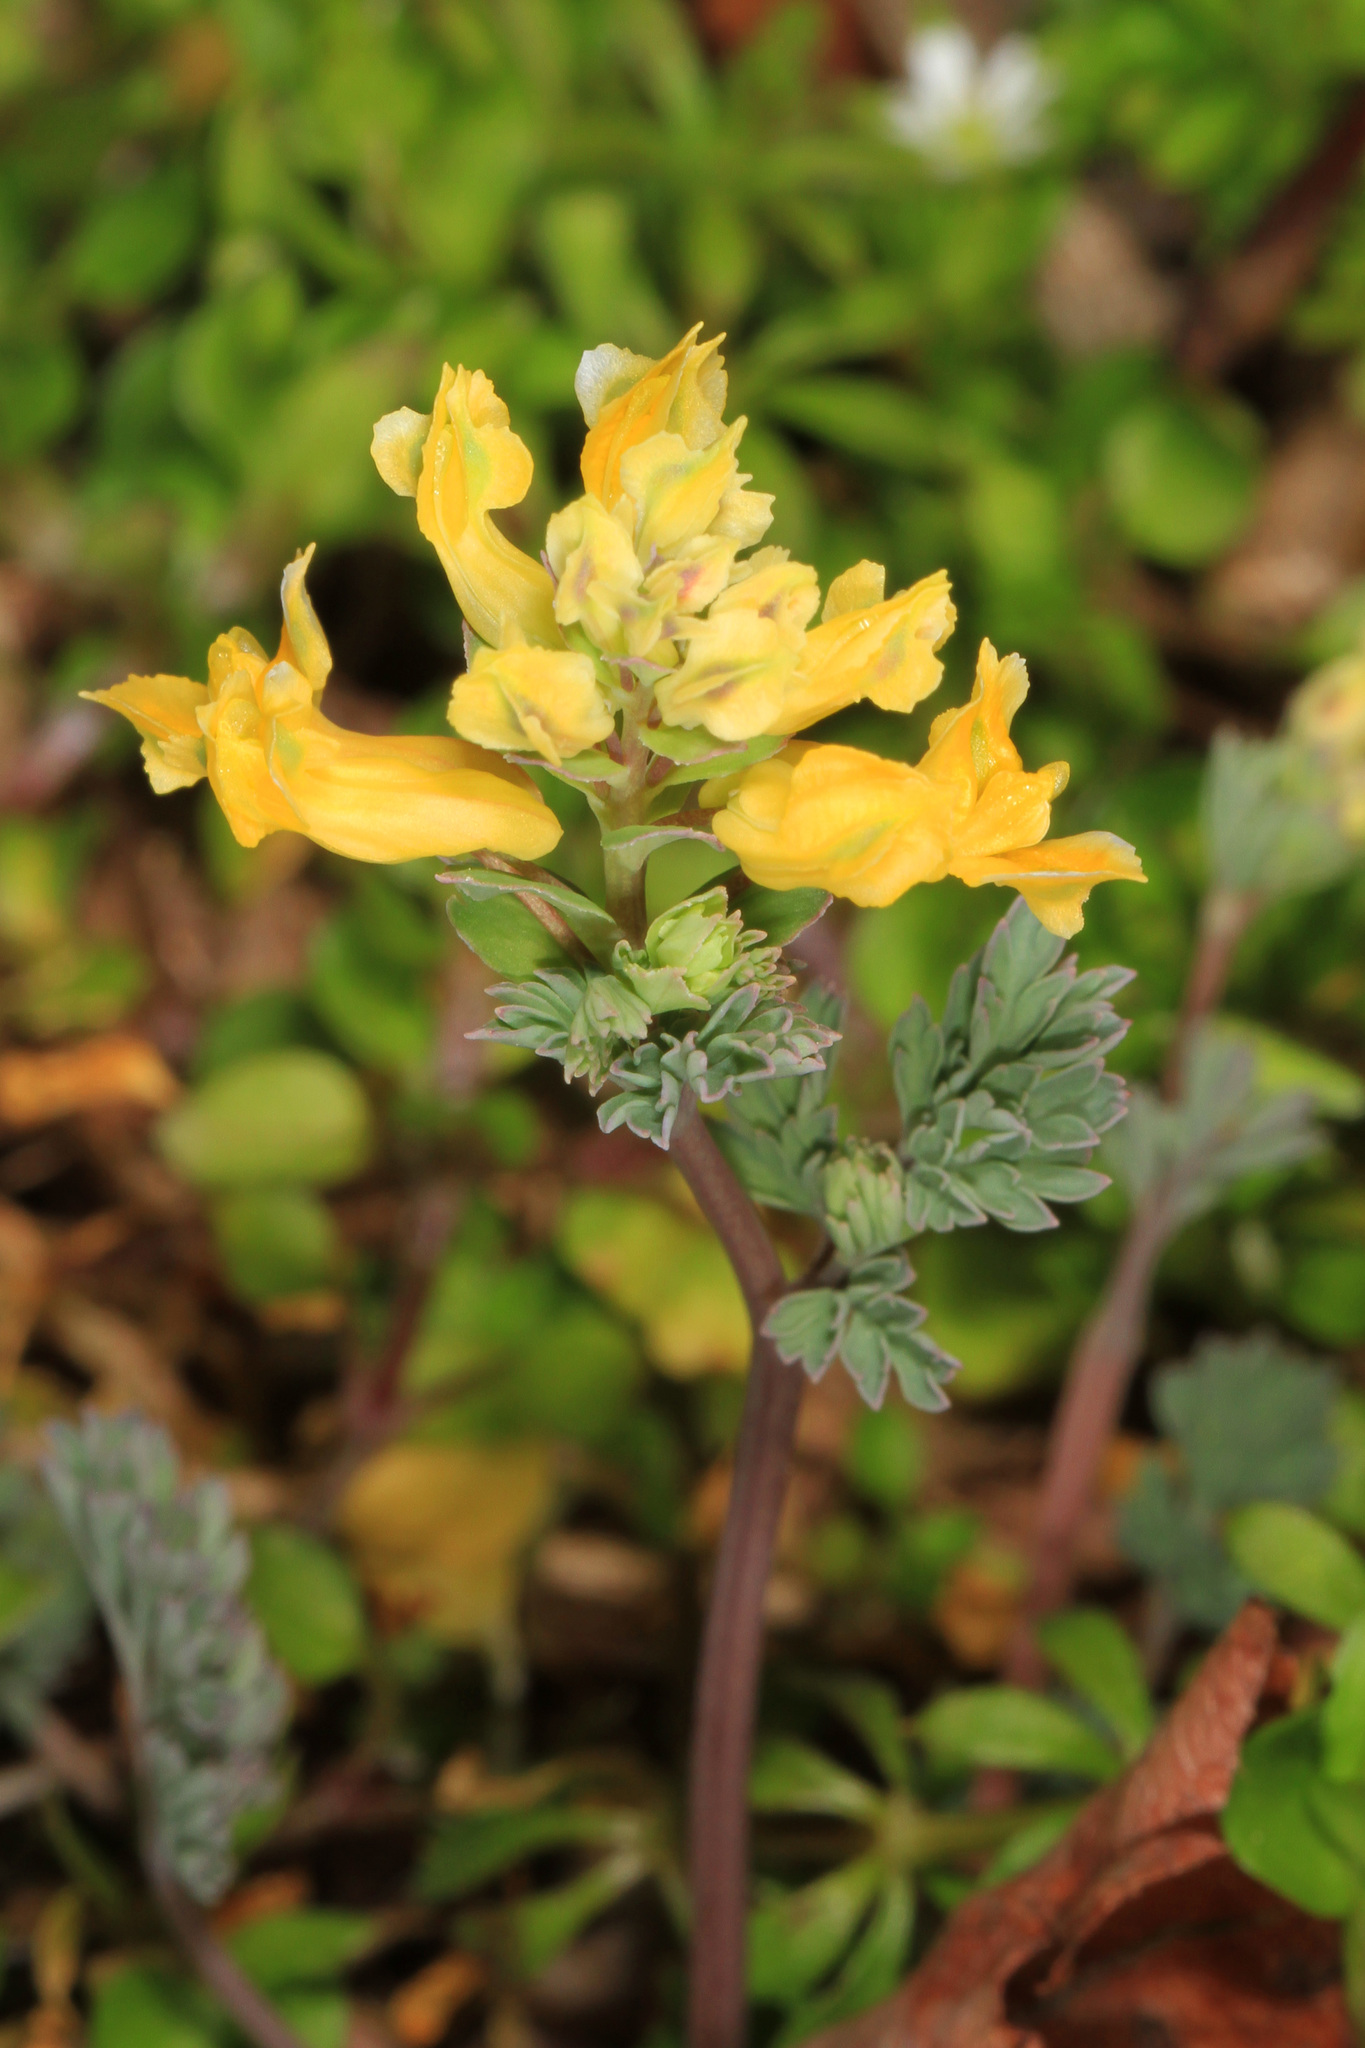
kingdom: Plantae
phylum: Tracheophyta
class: Magnoliopsida
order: Ranunculales
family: Papaveraceae
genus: Pseudofumaria
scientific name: Pseudofumaria lutea
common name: Yellow corydalis
